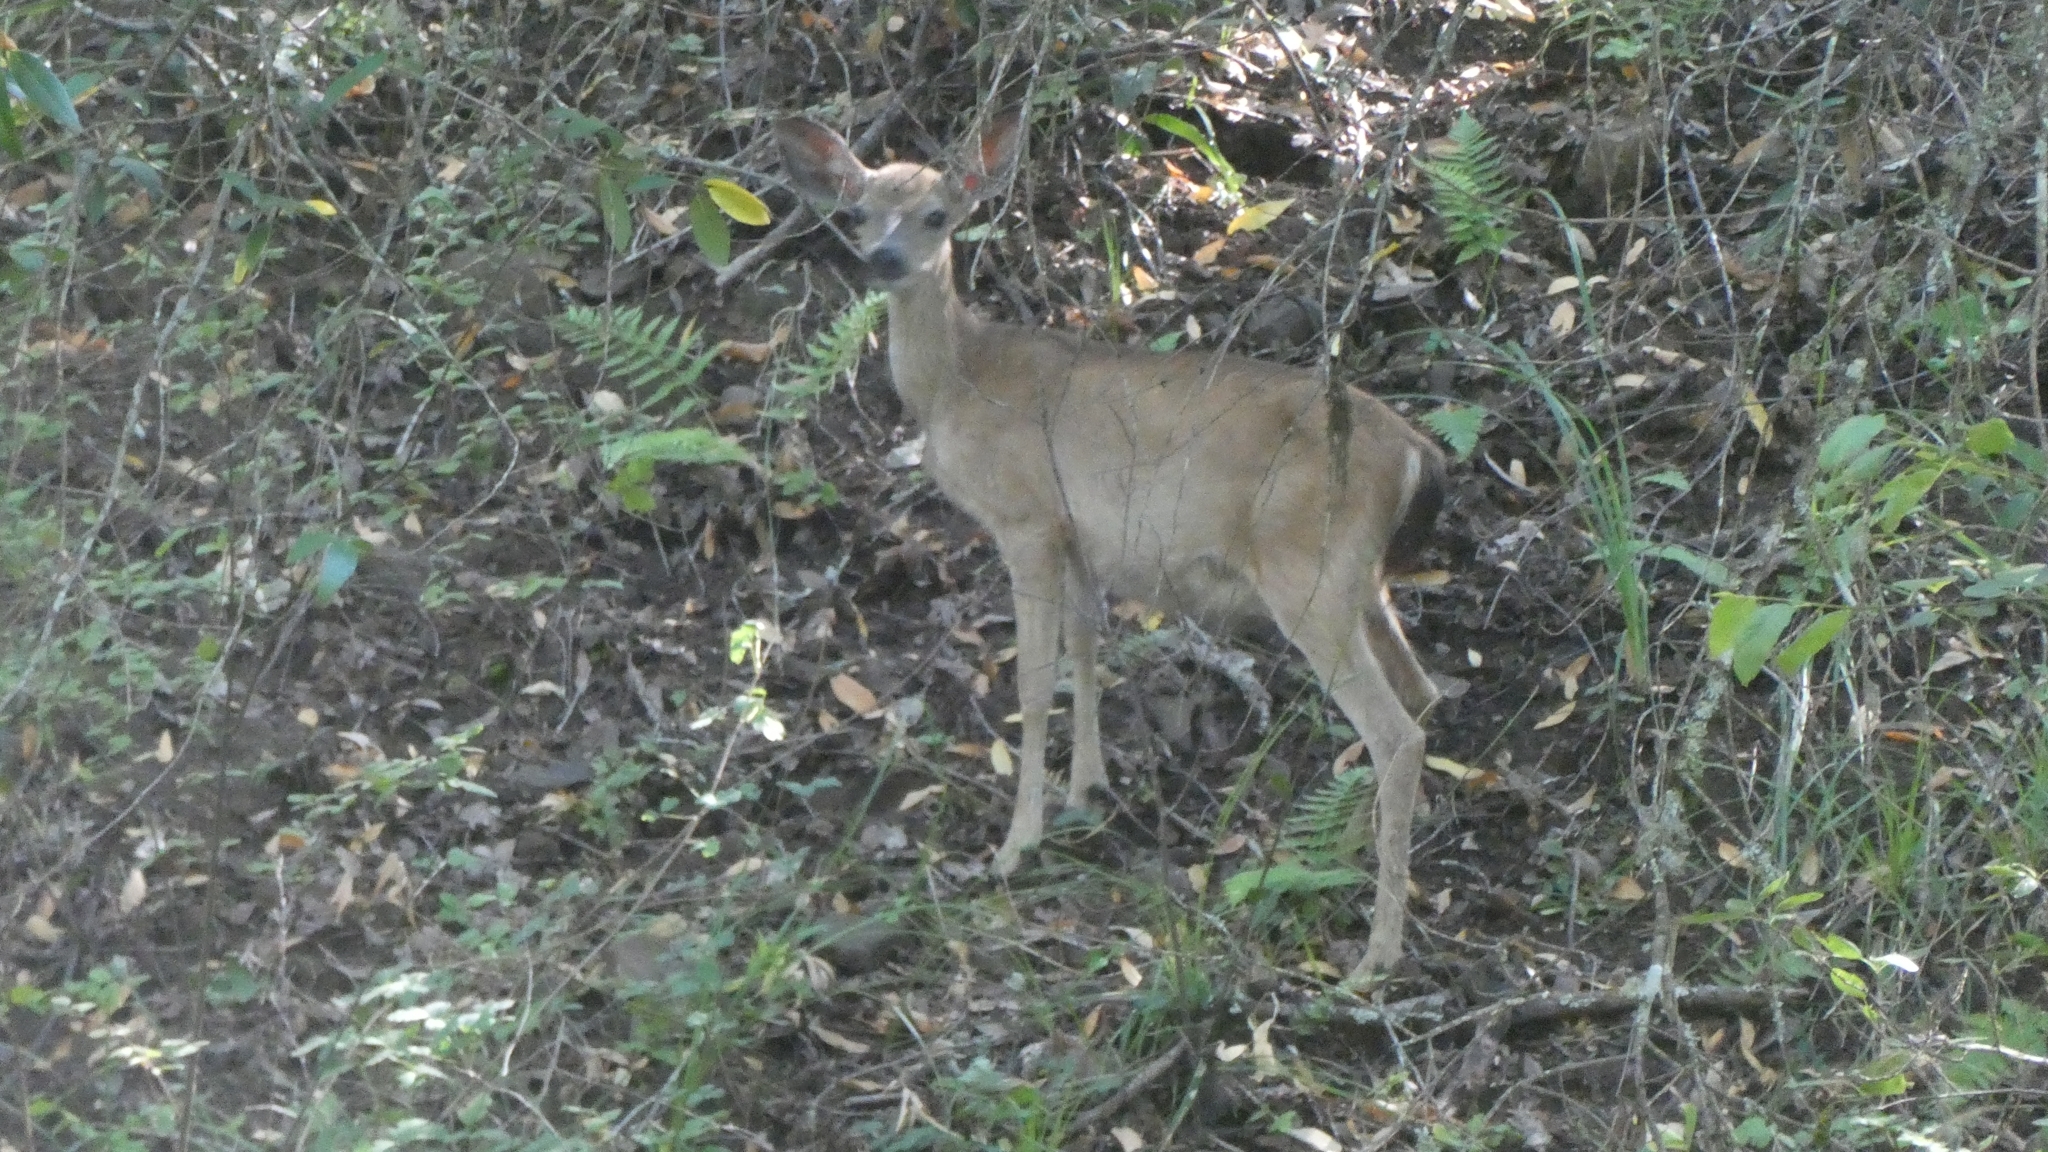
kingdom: Animalia
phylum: Chordata
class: Mammalia
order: Artiodactyla
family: Cervidae
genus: Odocoileus
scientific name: Odocoileus hemionus
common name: Mule deer
